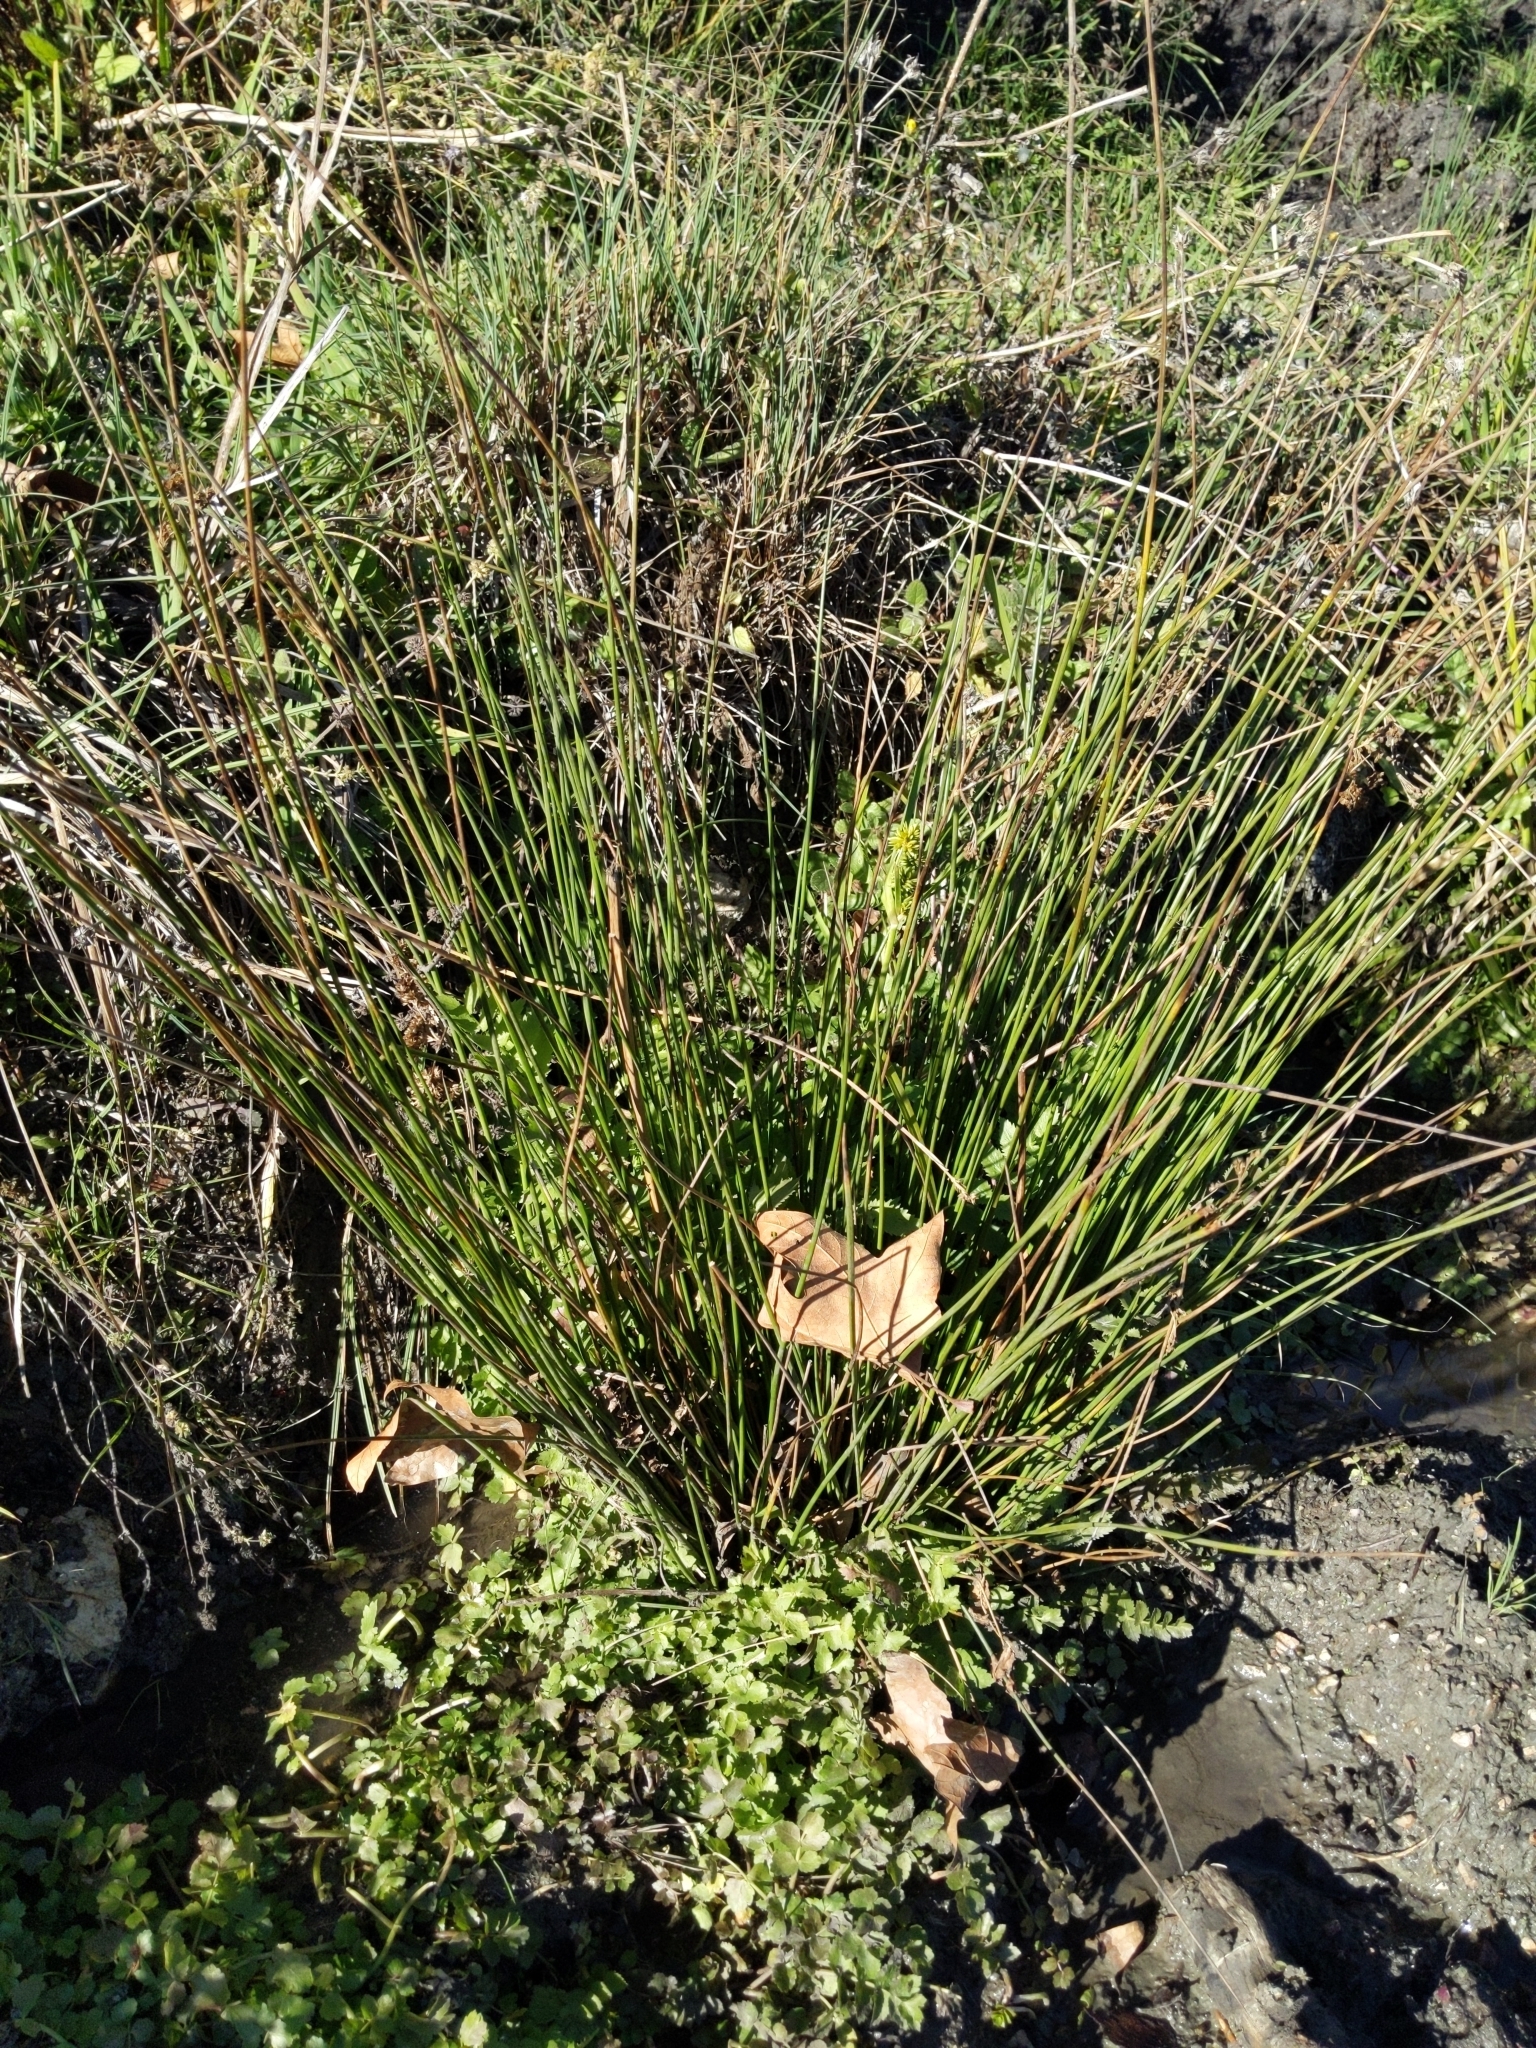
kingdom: Plantae
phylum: Tracheophyta
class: Liliopsida
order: Poales
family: Juncaceae
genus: Juncus
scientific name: Juncus effusus
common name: Soft rush
